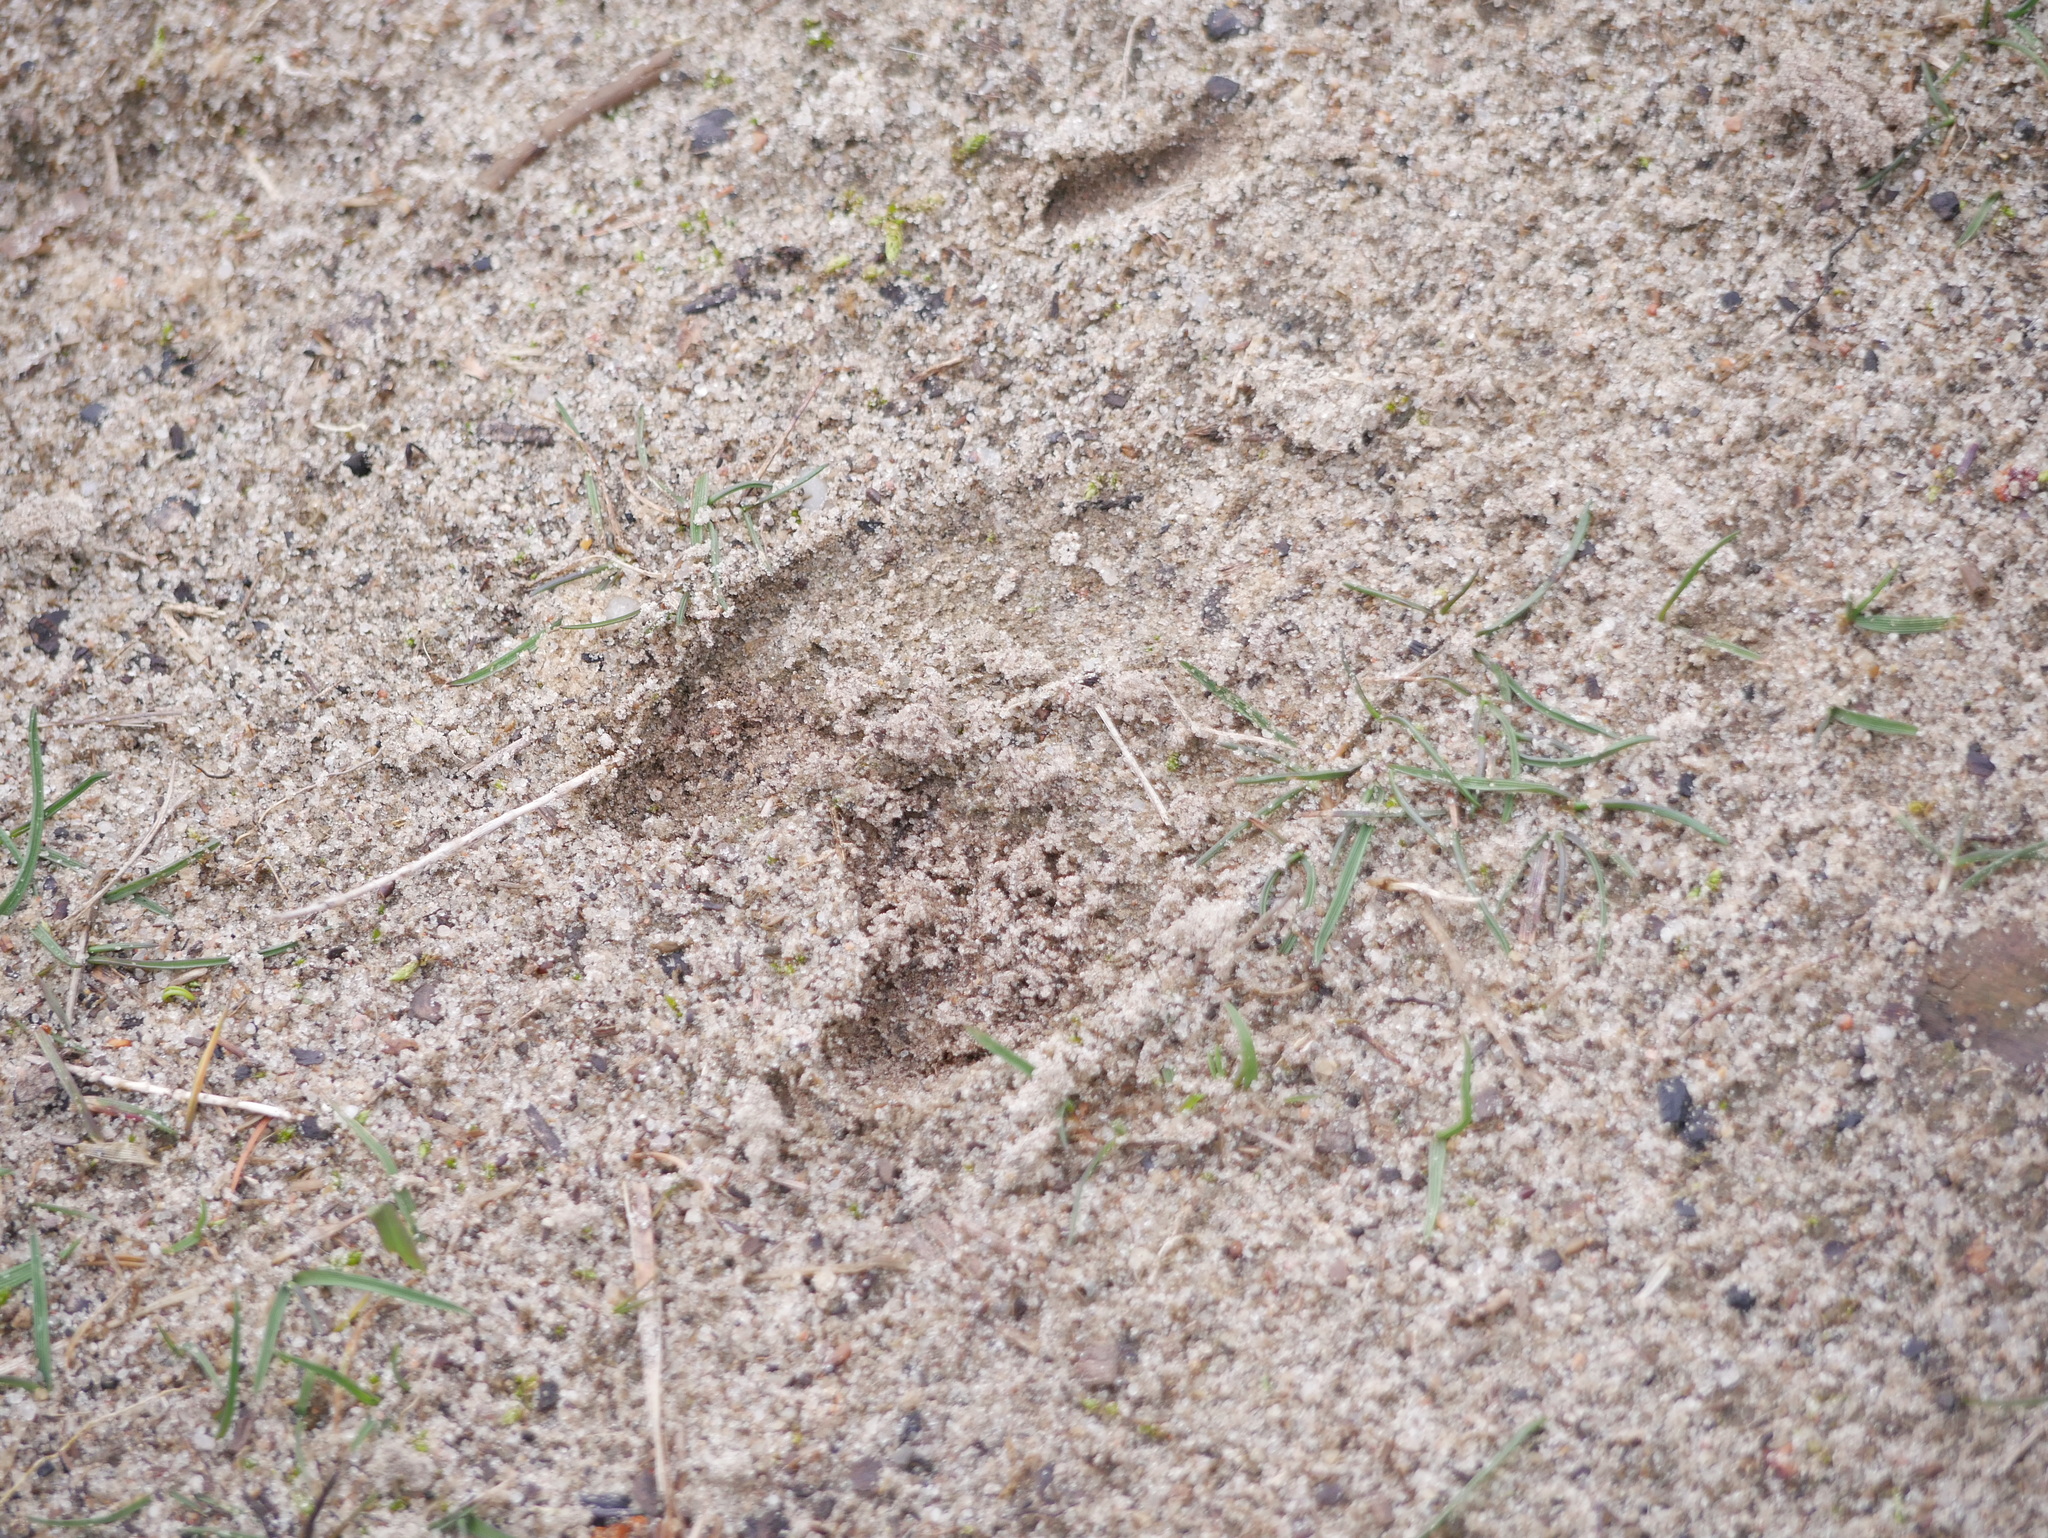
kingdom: Animalia
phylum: Chordata
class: Mammalia
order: Artiodactyla
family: Suidae
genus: Sus
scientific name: Sus scrofa
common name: Wild boar
